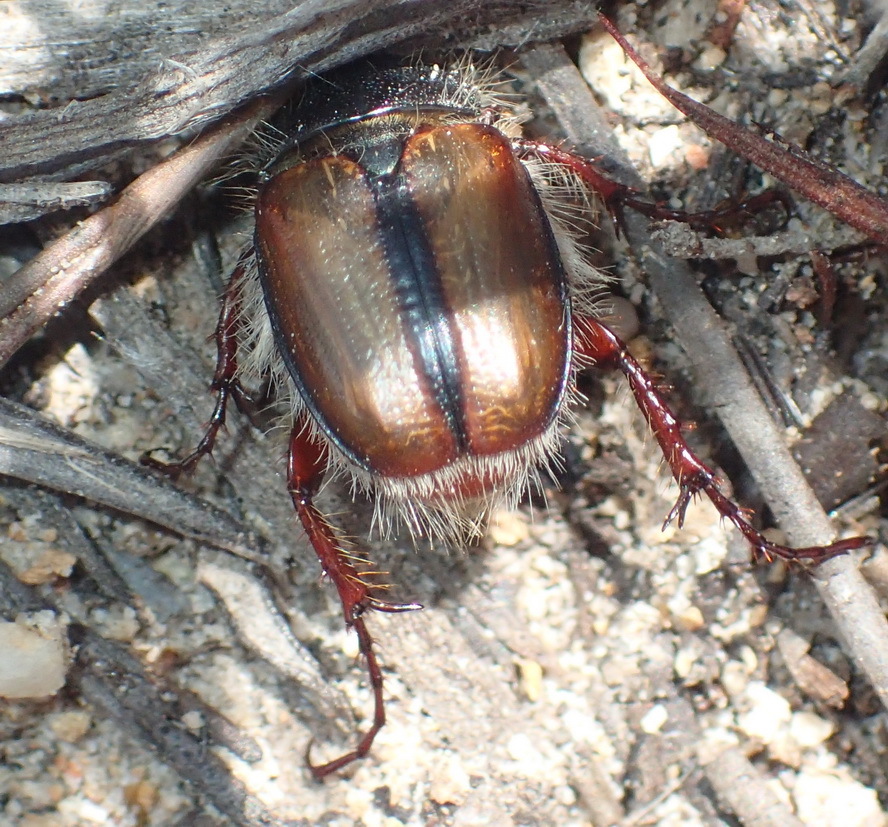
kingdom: Animalia
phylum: Arthropoda
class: Insecta
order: Coleoptera
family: Scarabaeidae
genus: Stegopterus
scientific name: Stegopterus septus
